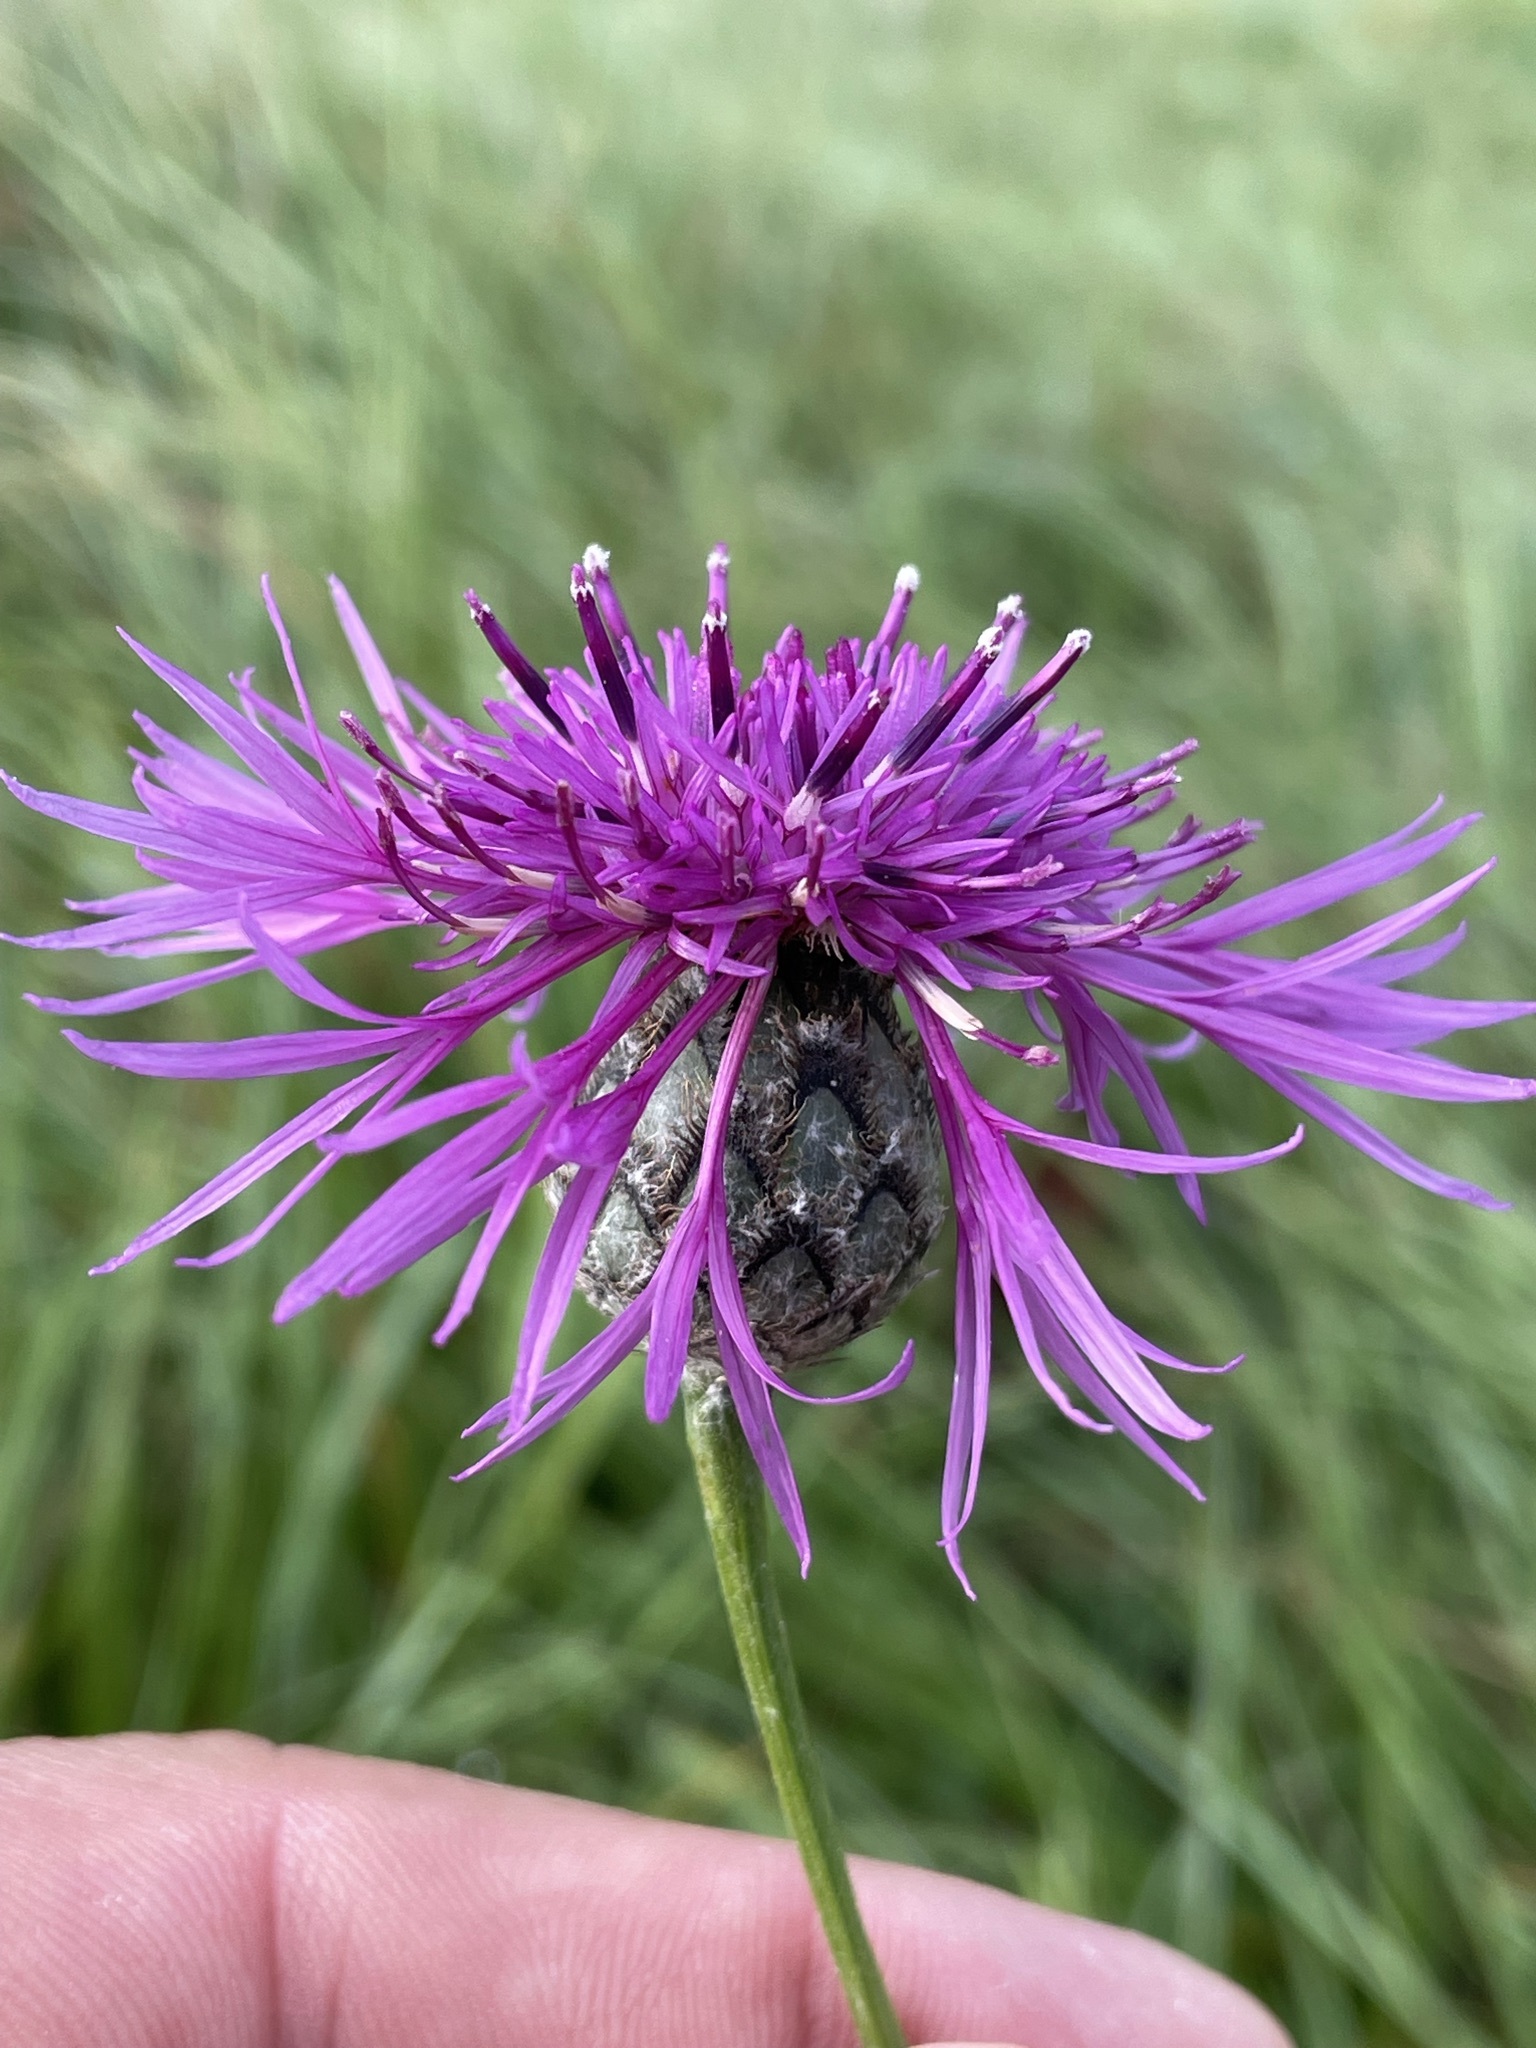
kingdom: Plantae
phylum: Tracheophyta
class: Magnoliopsida
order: Asterales
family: Asteraceae
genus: Centaurea
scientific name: Centaurea scabiosa
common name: Greater knapweed
